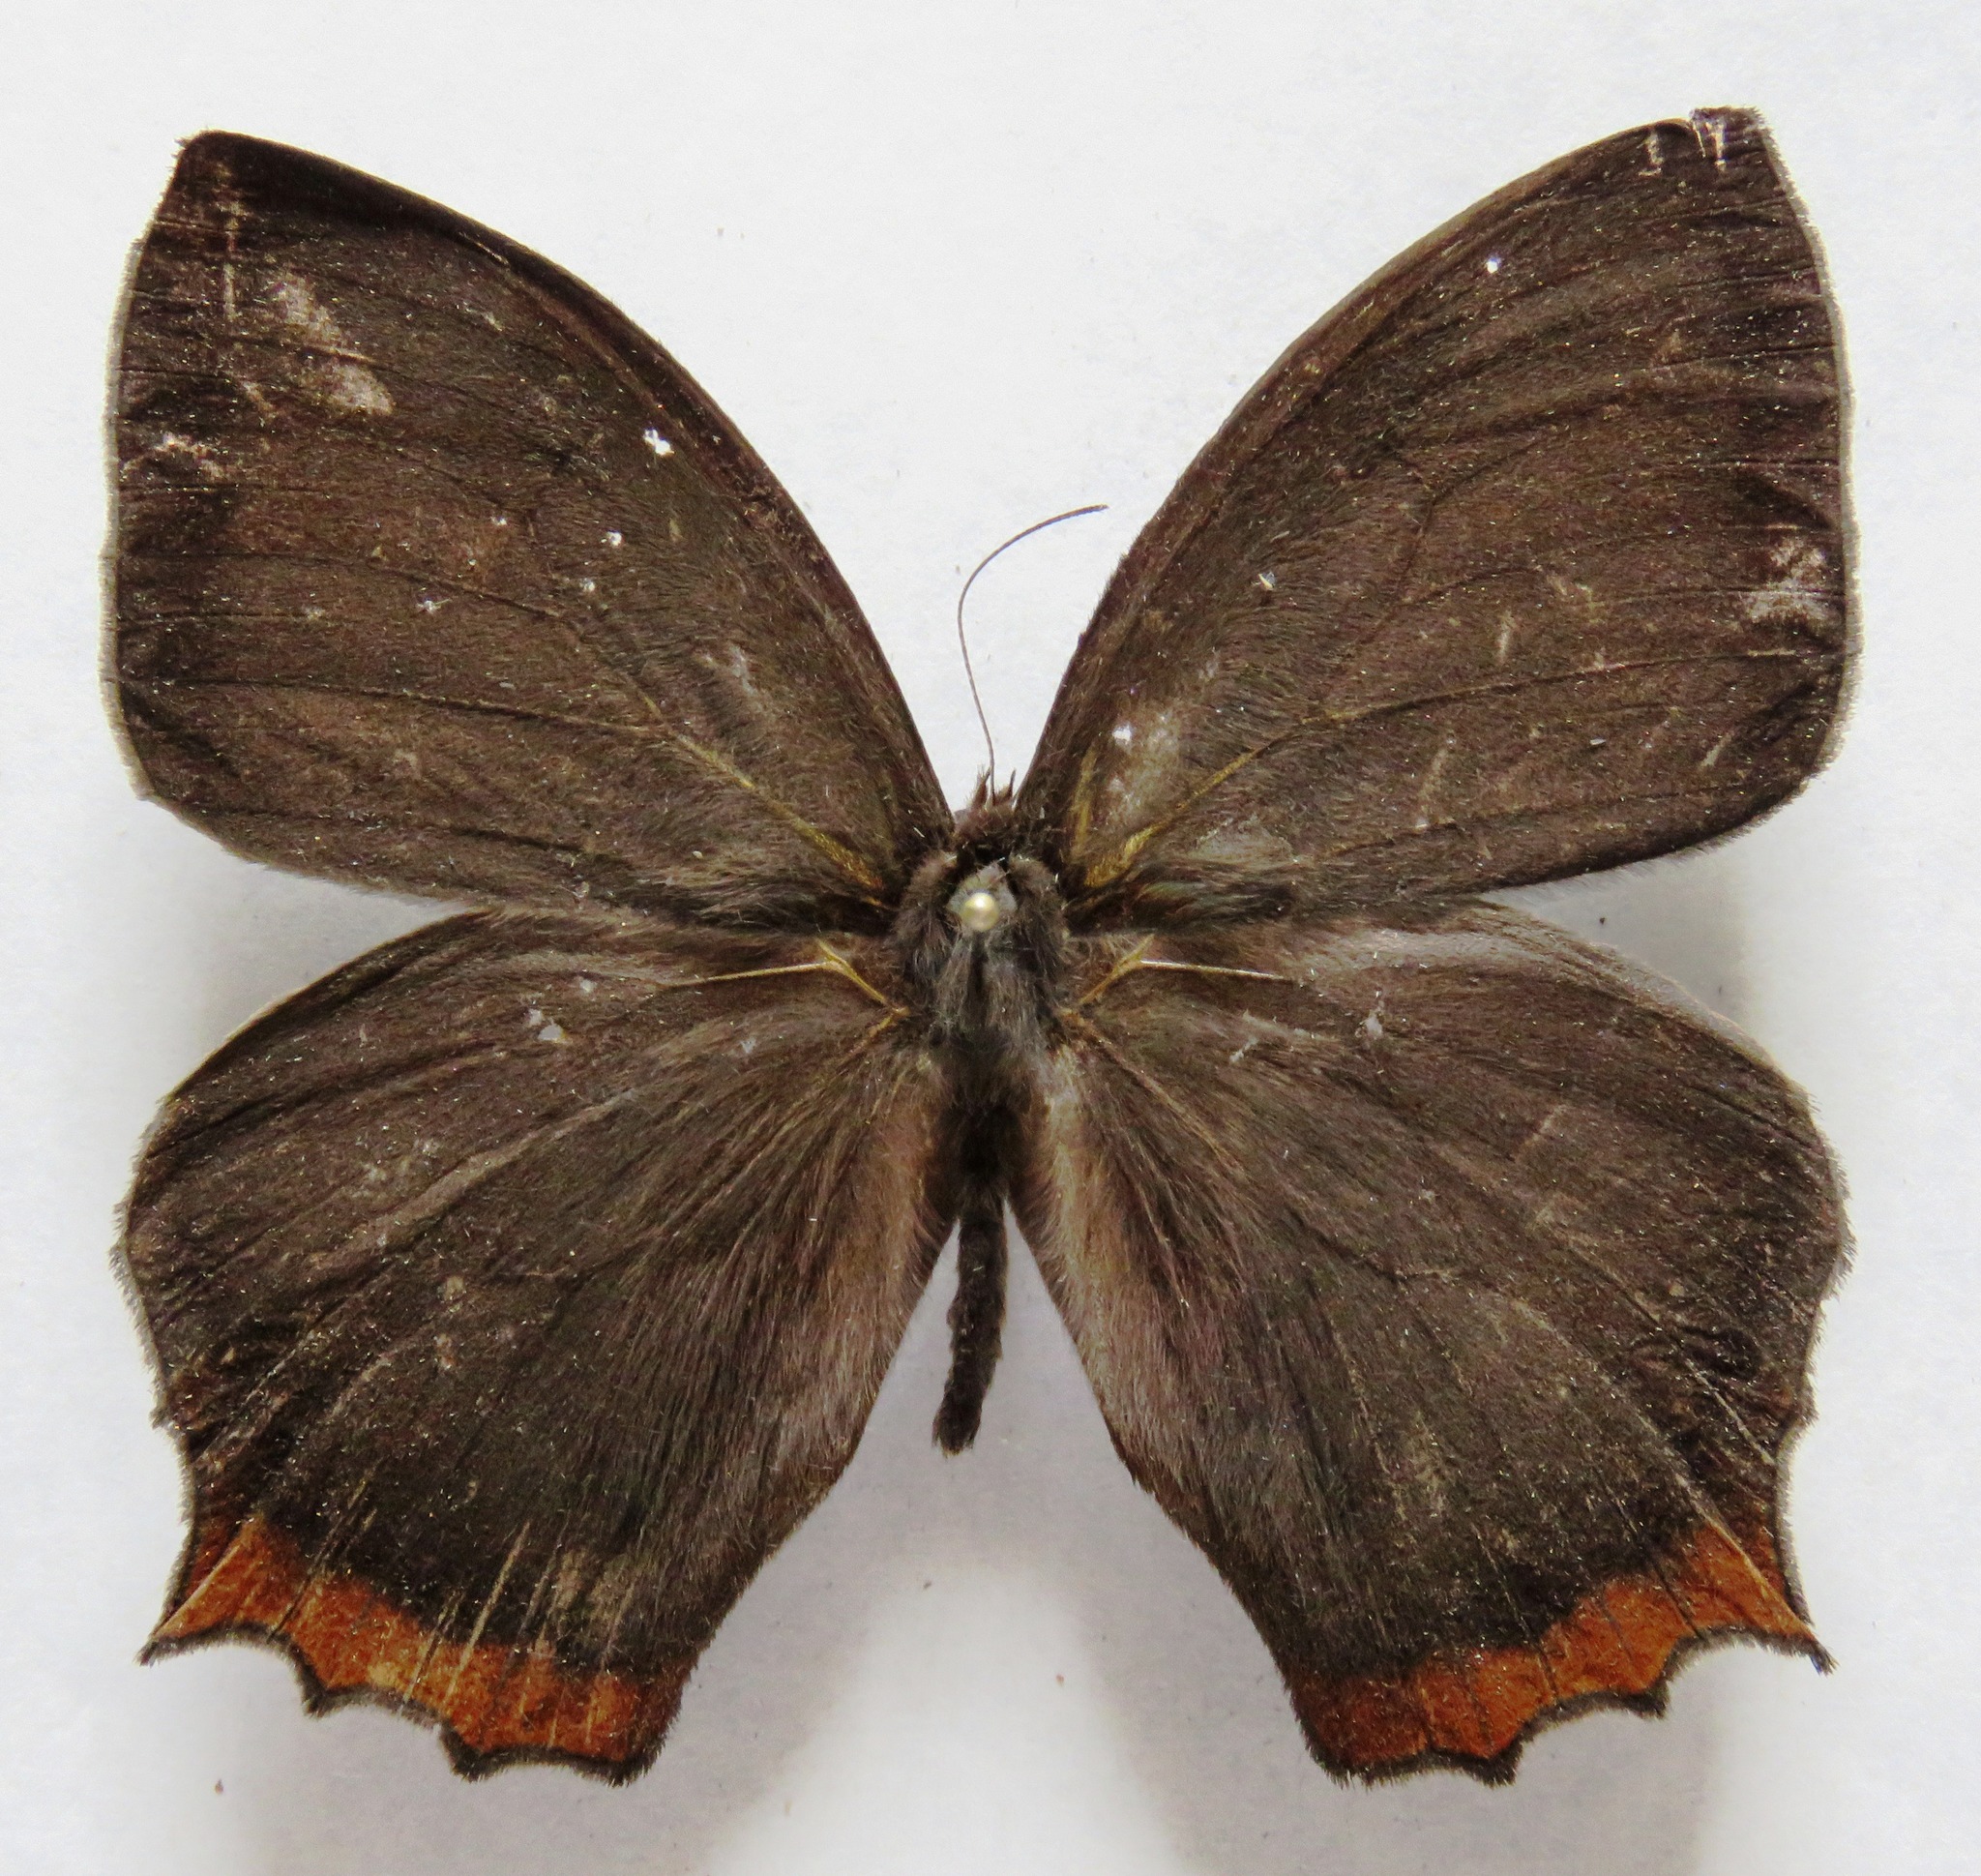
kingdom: Animalia
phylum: Arthropoda
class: Insecta
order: Lepidoptera
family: Nymphalidae
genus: Taygetis
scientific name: Taygetis virgilia
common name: Stub-tailed satyr
